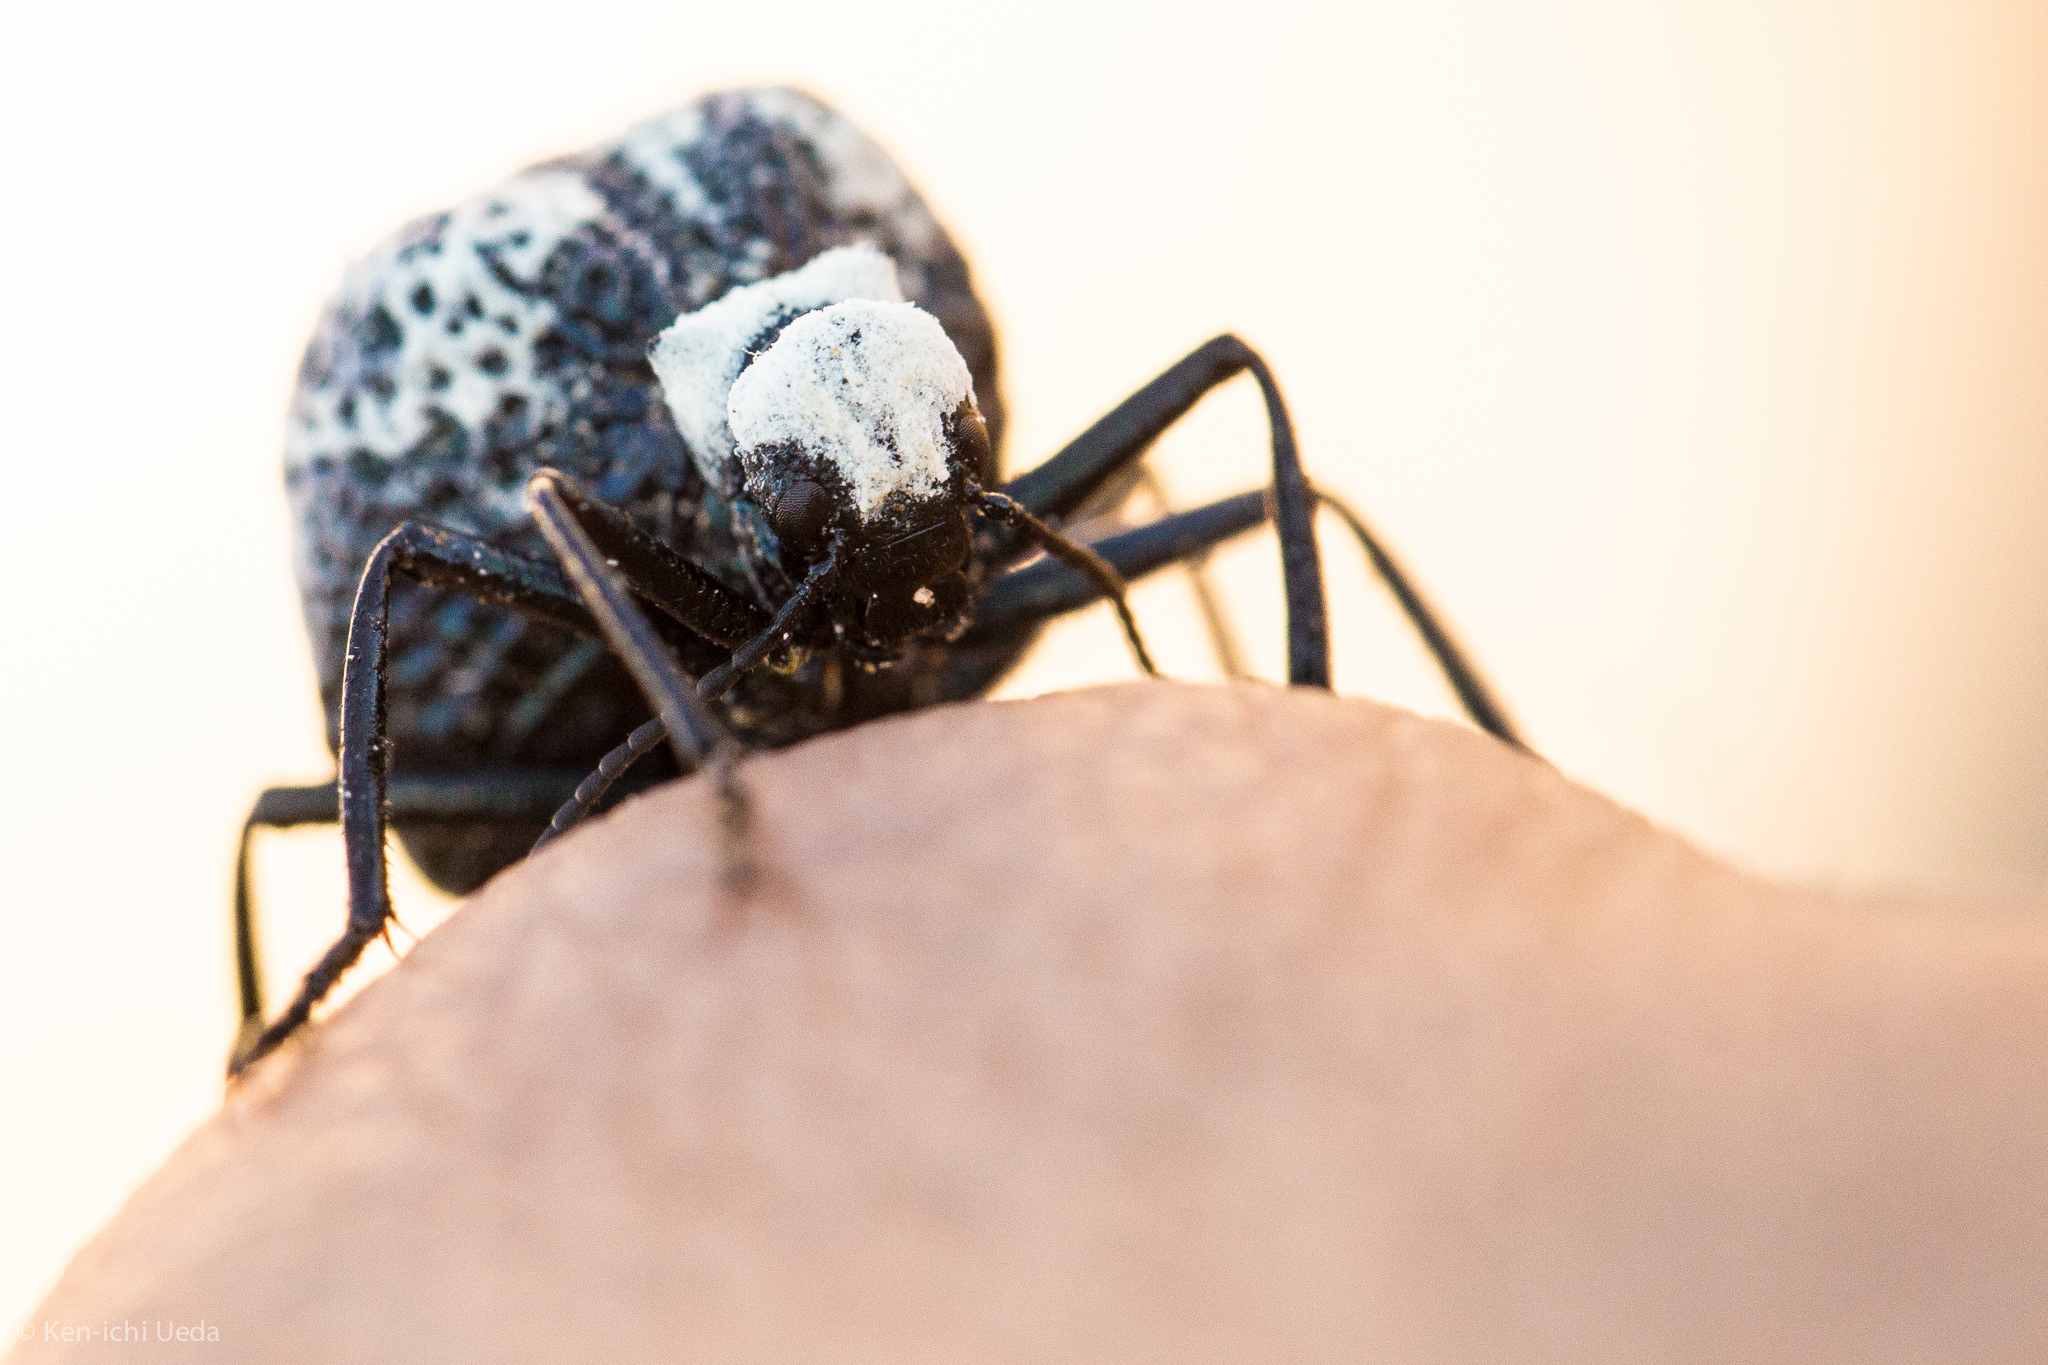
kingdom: Animalia
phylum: Arthropoda
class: Insecta
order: Coleoptera
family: Meloidae
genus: Cysteodemus
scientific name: Cysteodemus armatus
